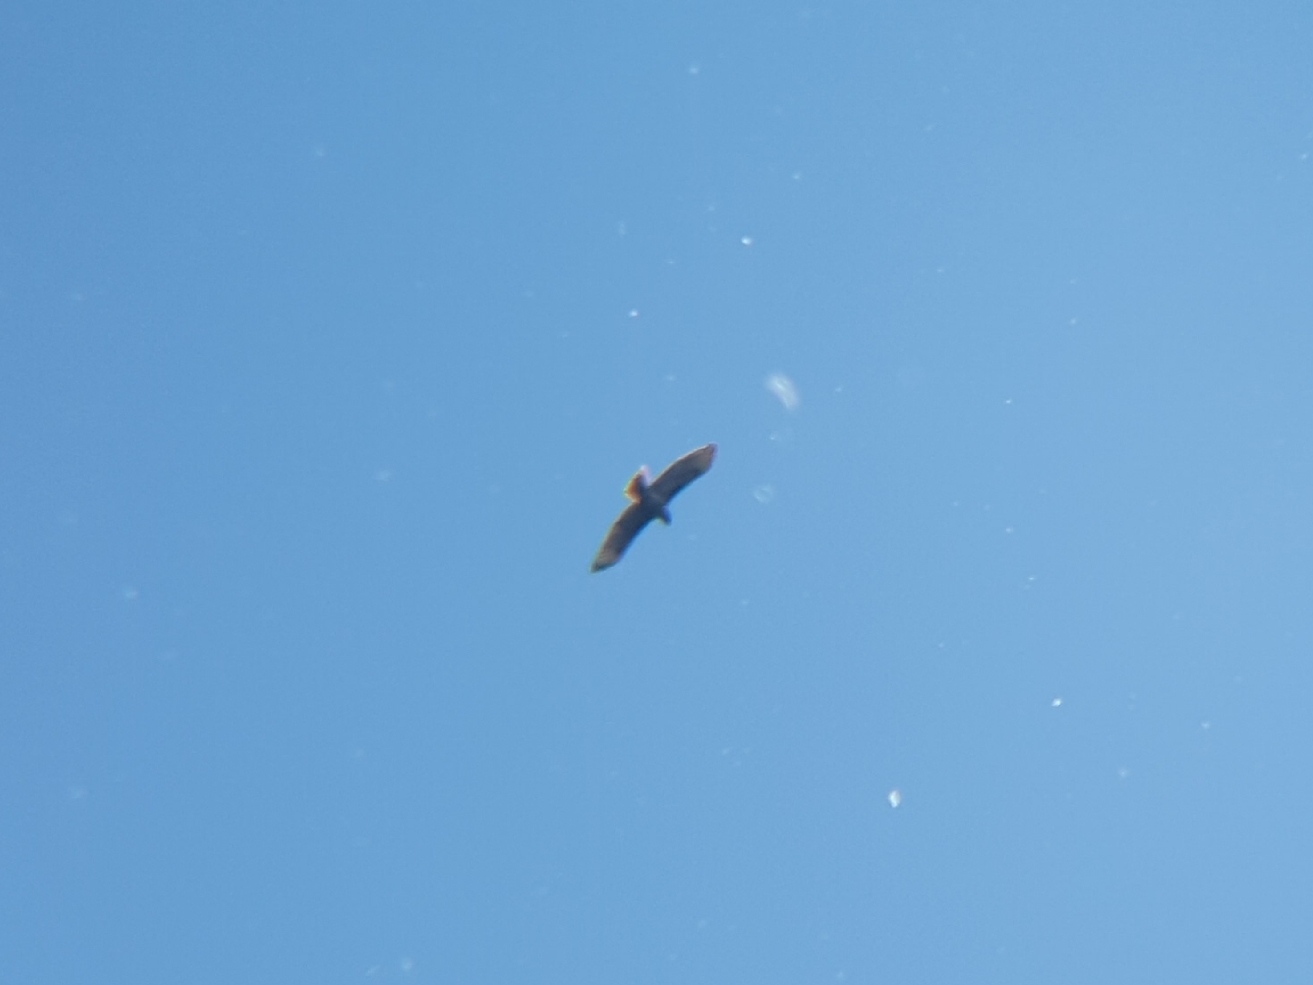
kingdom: Animalia
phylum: Chordata
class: Aves
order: Accipitriformes
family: Accipitridae
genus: Buteo
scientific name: Buteo jamaicensis
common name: Red-tailed hawk
